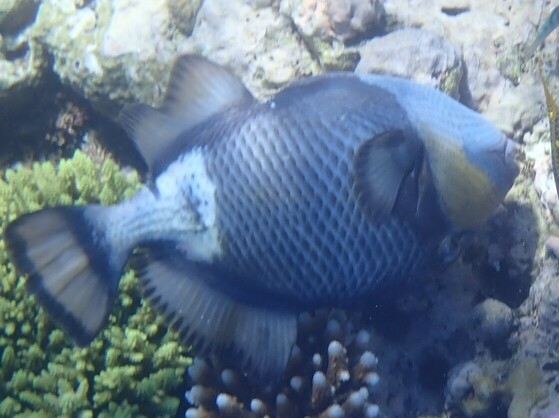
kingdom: Animalia
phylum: Chordata
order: Tetraodontiformes
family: Balistidae
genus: Balistoides
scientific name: Balistoides viridescens
